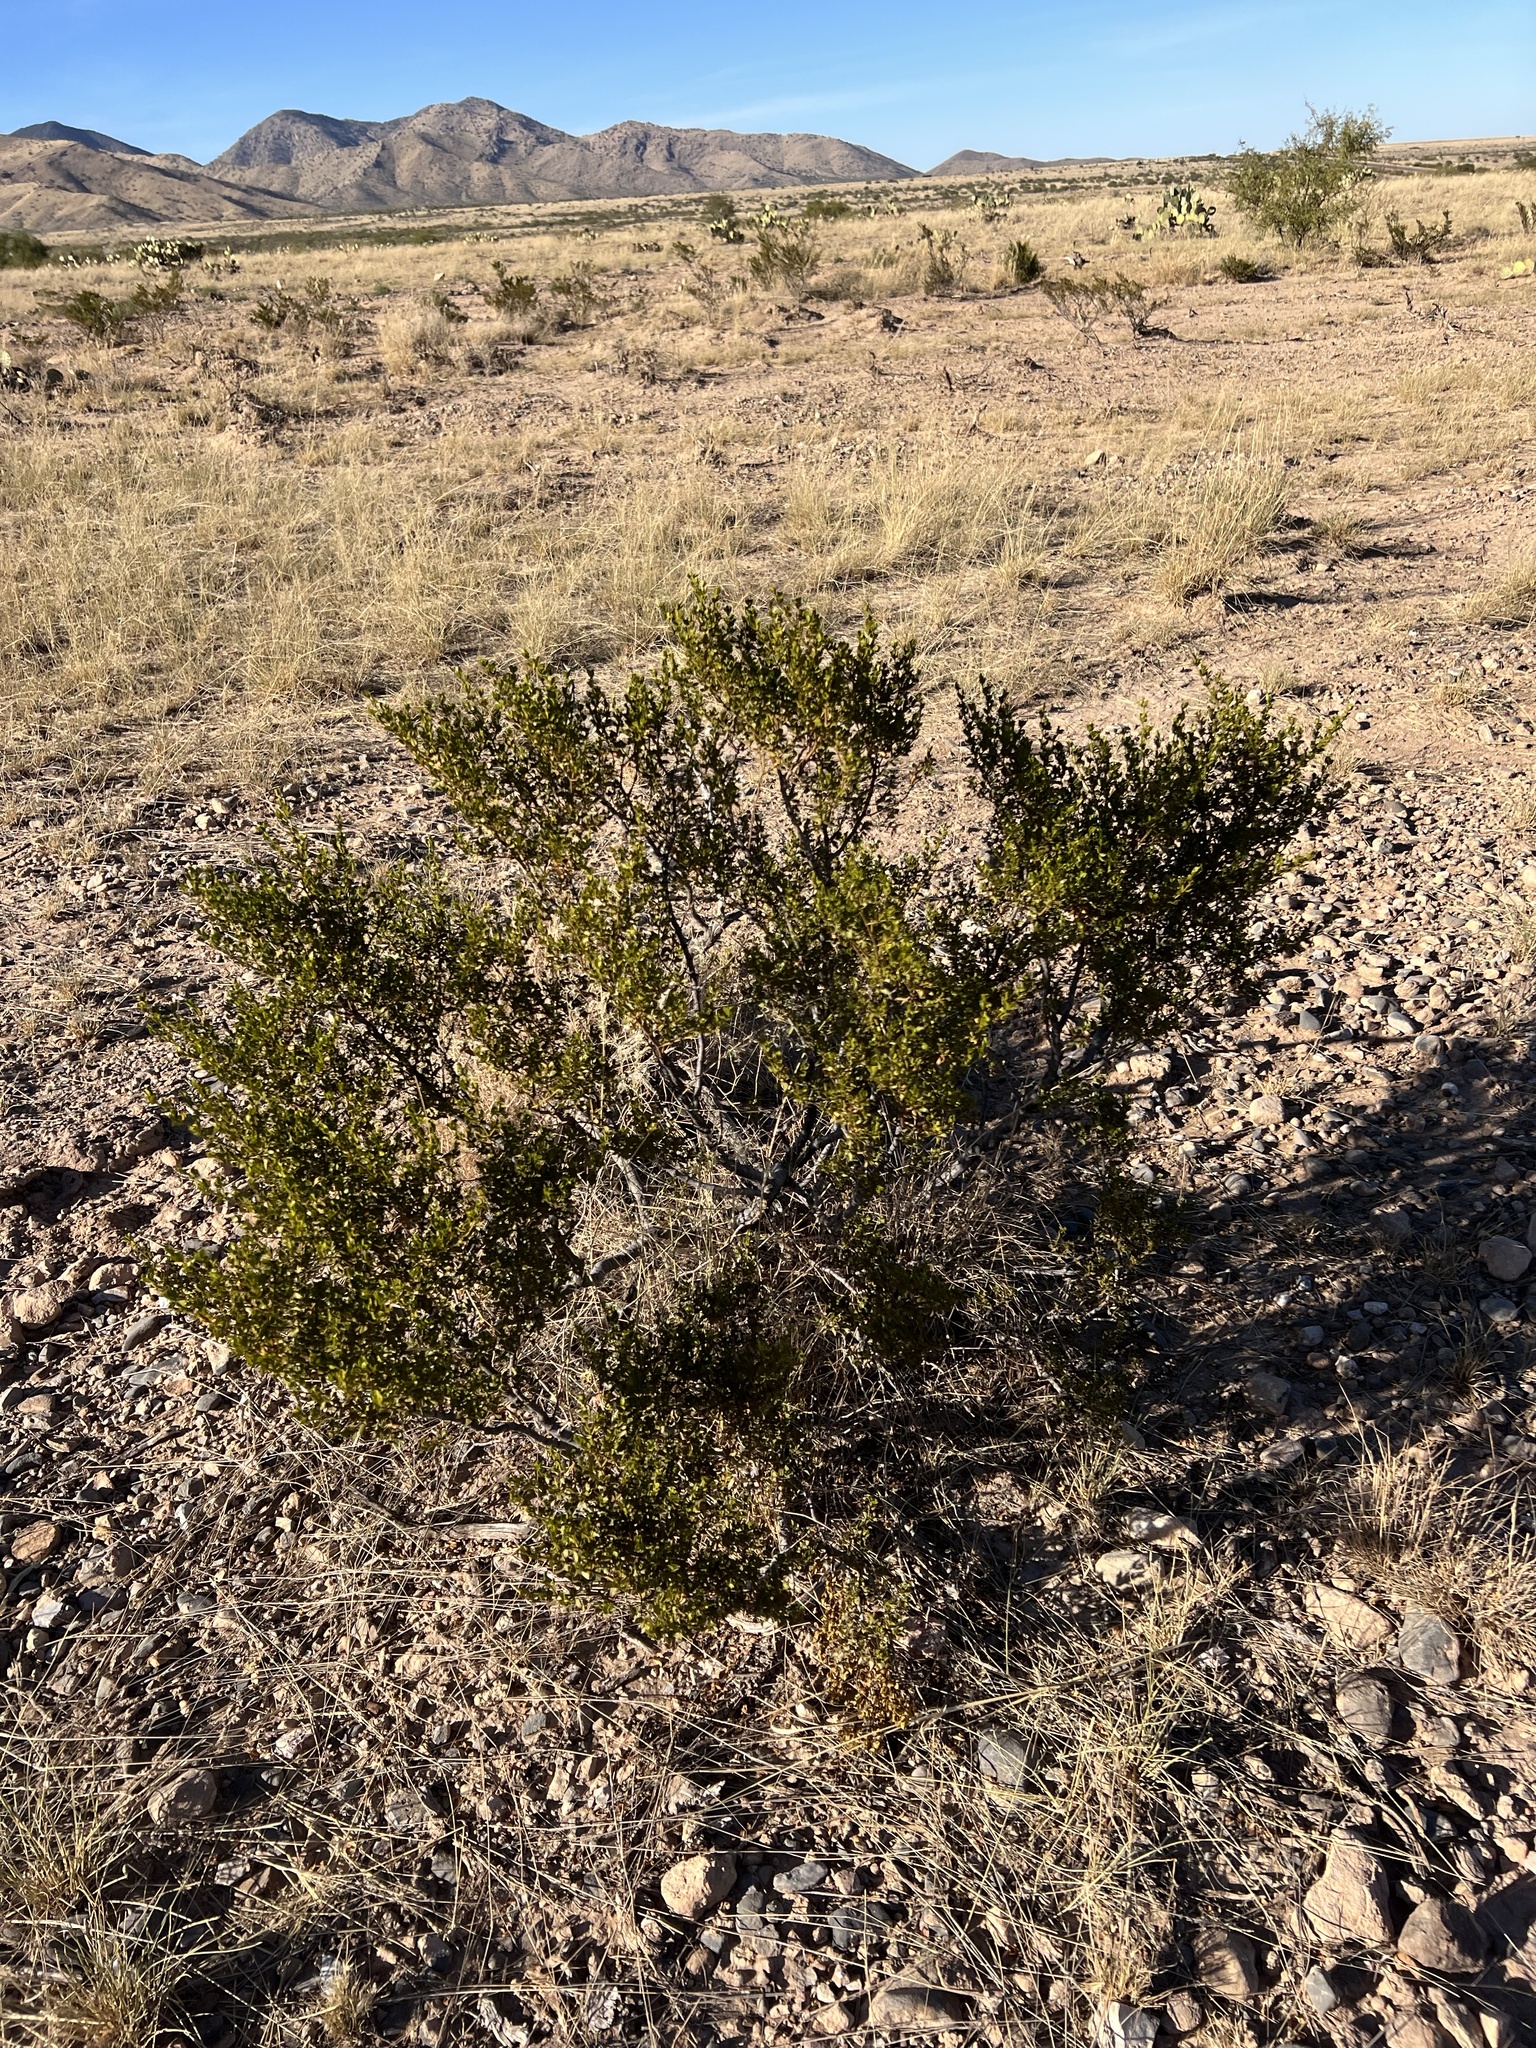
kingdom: Plantae
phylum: Tracheophyta
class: Magnoliopsida
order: Zygophyllales
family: Zygophyllaceae
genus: Larrea
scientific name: Larrea tridentata
